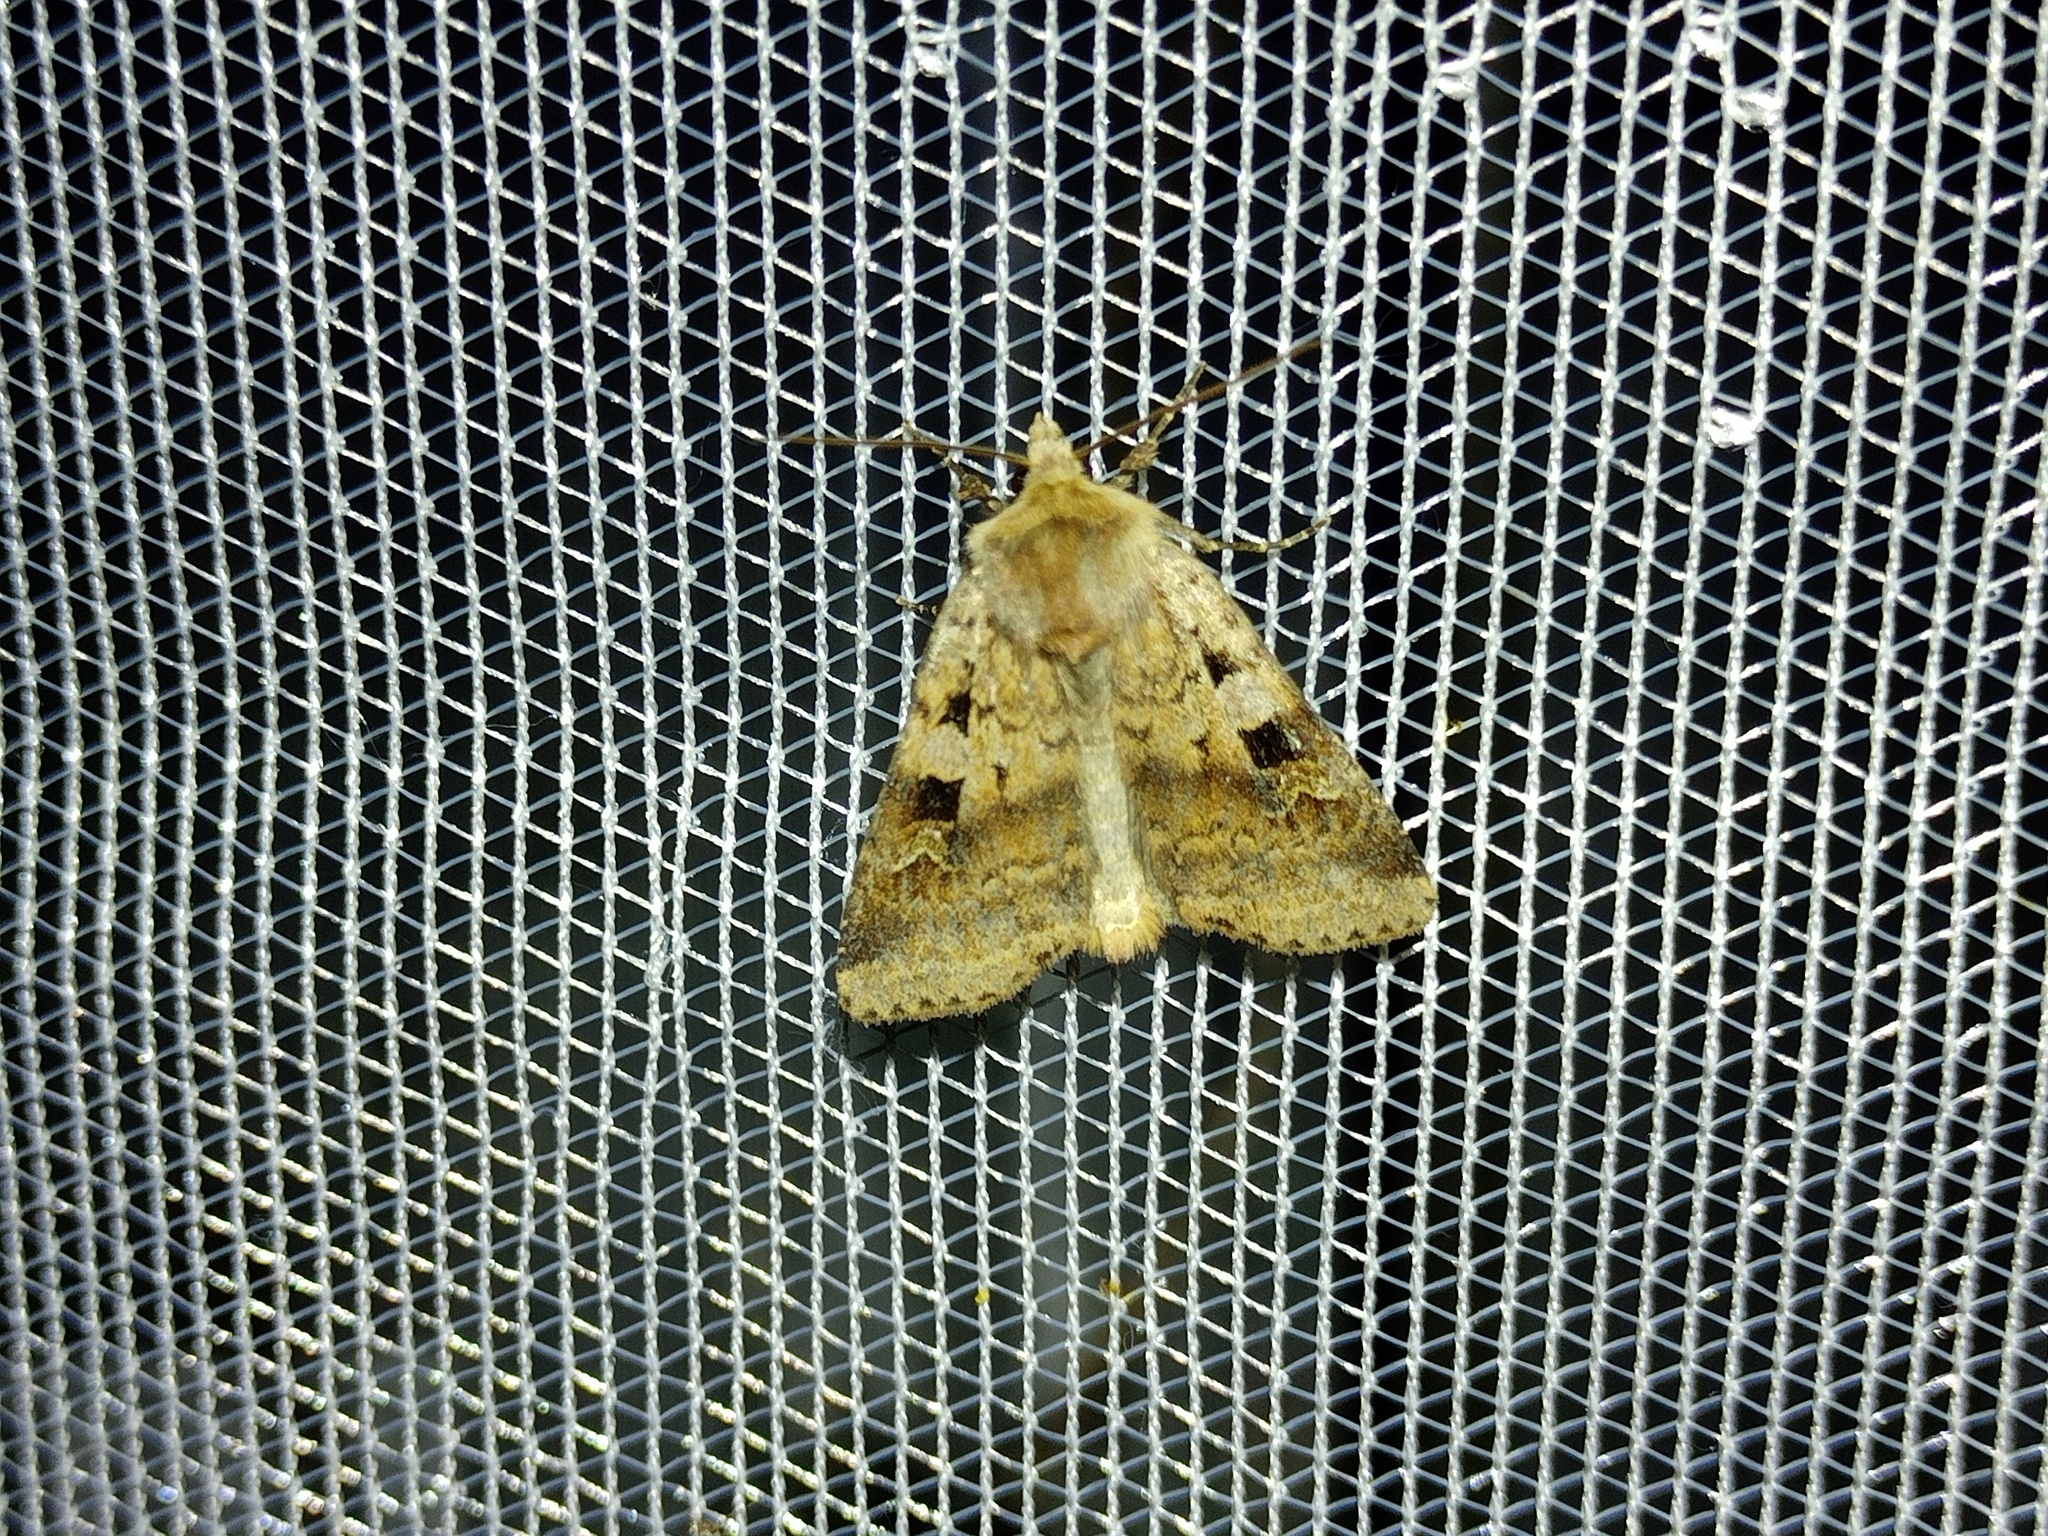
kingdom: Animalia
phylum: Arthropoda
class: Insecta
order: Lepidoptera
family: Noctuidae
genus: Diarsia
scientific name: Diarsia mendica
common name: Ingrailed clay
